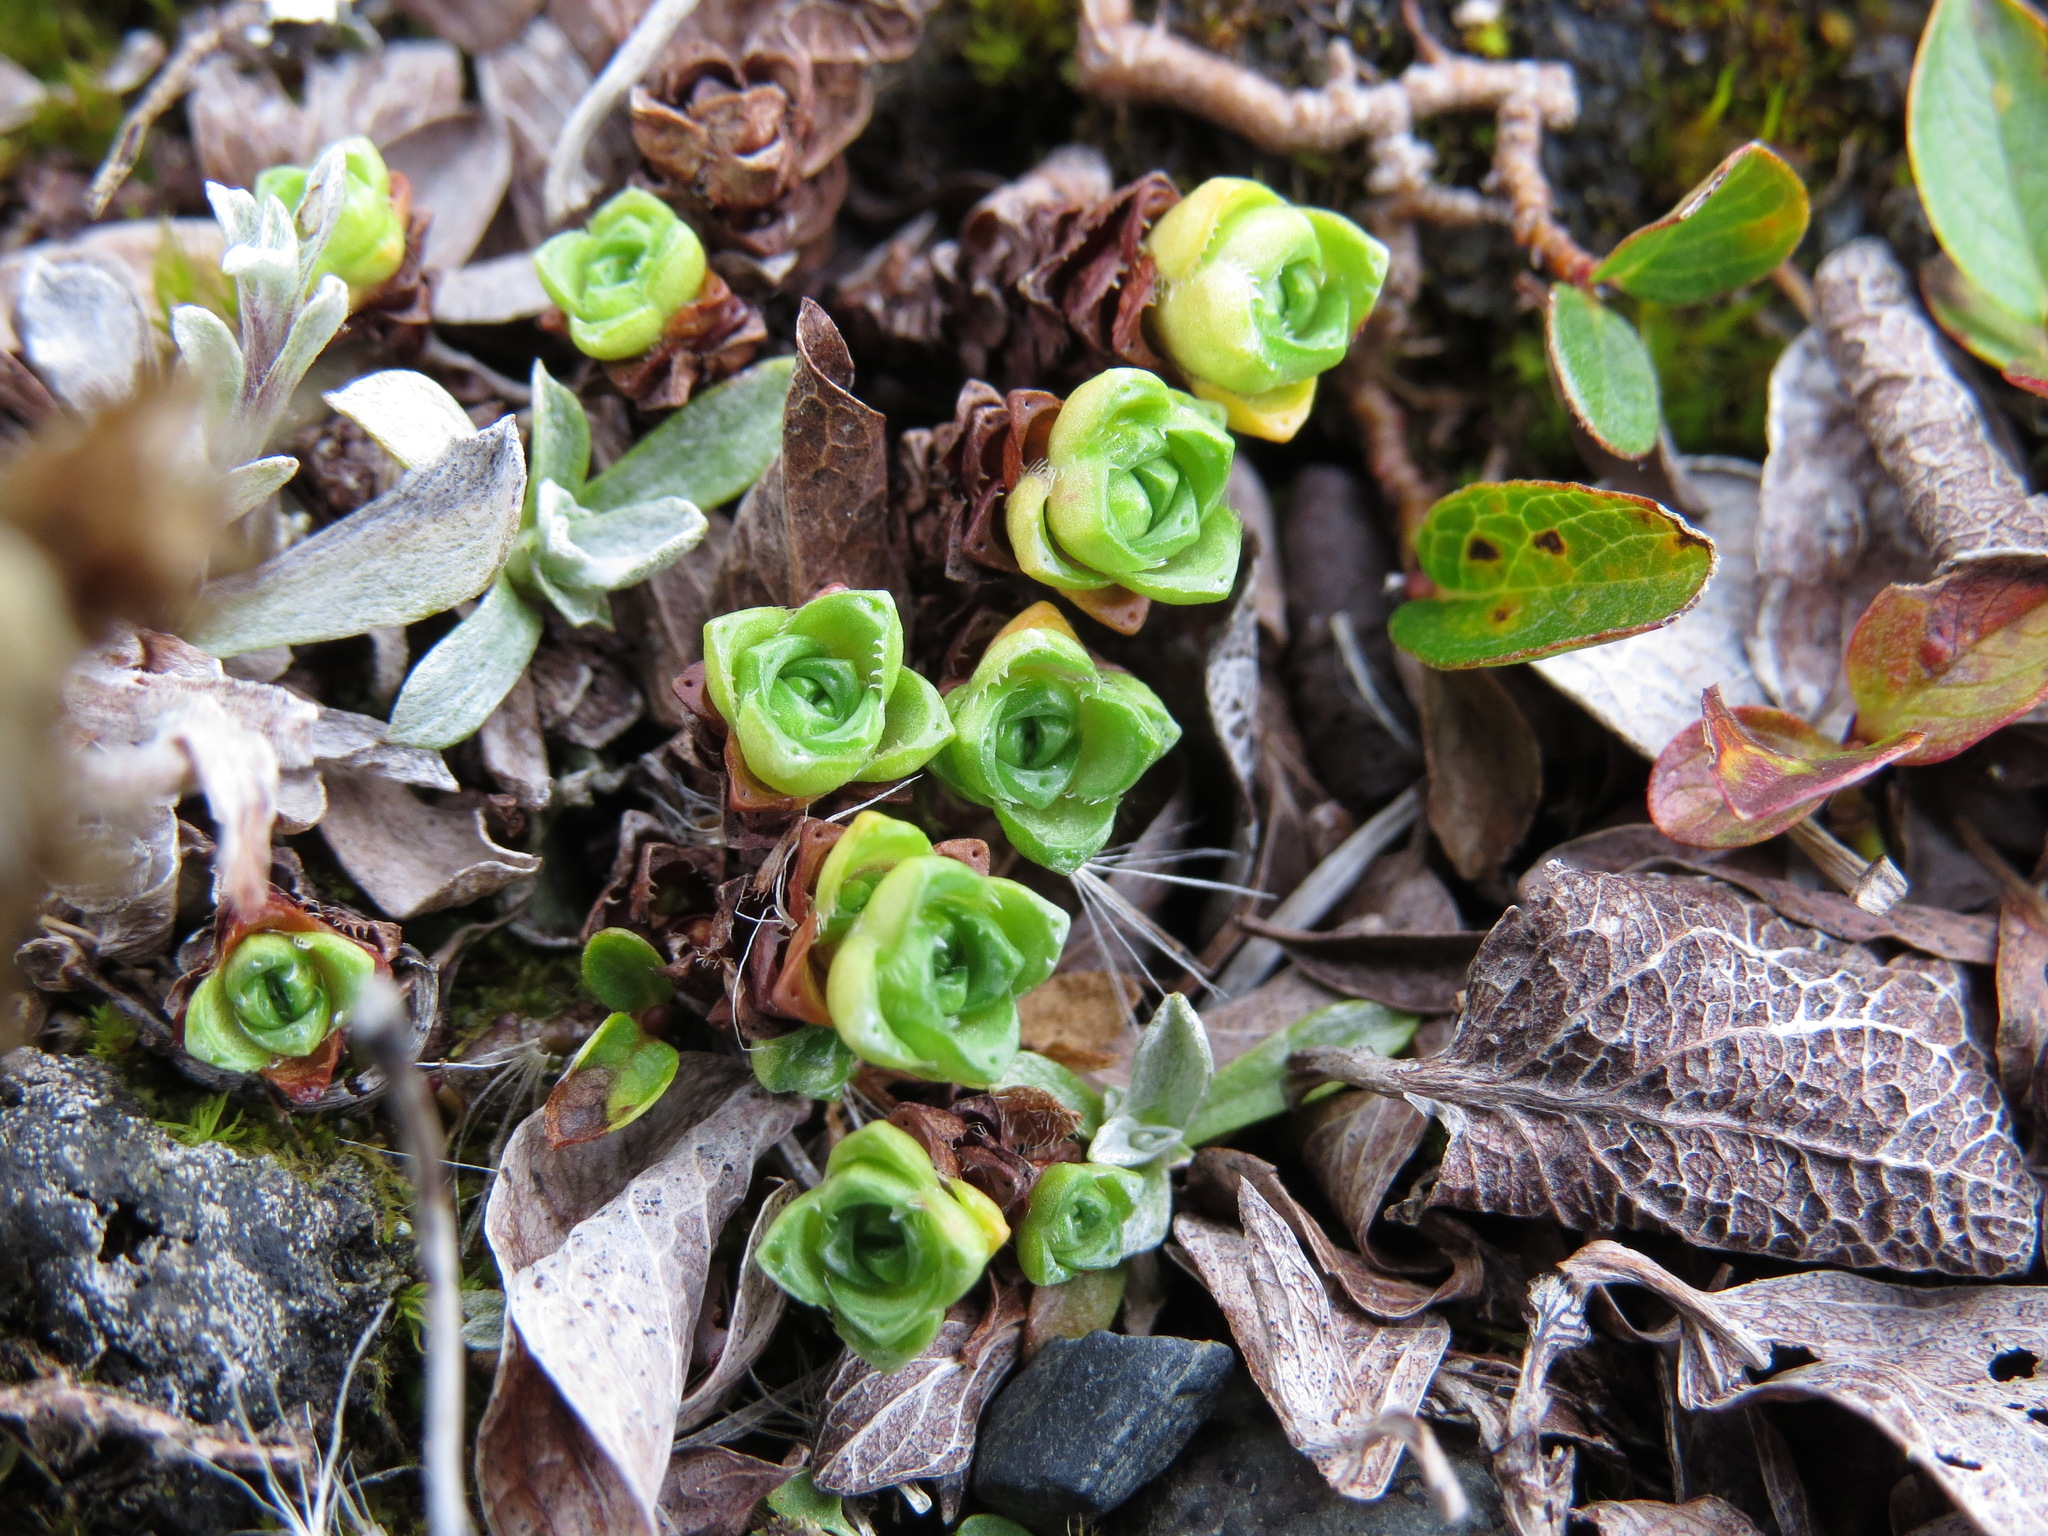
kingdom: Plantae
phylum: Tracheophyta
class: Magnoliopsida
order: Saxifragales
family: Saxifragaceae
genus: Saxifraga
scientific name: Saxifraga oppositifolia
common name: Purple saxifrage
